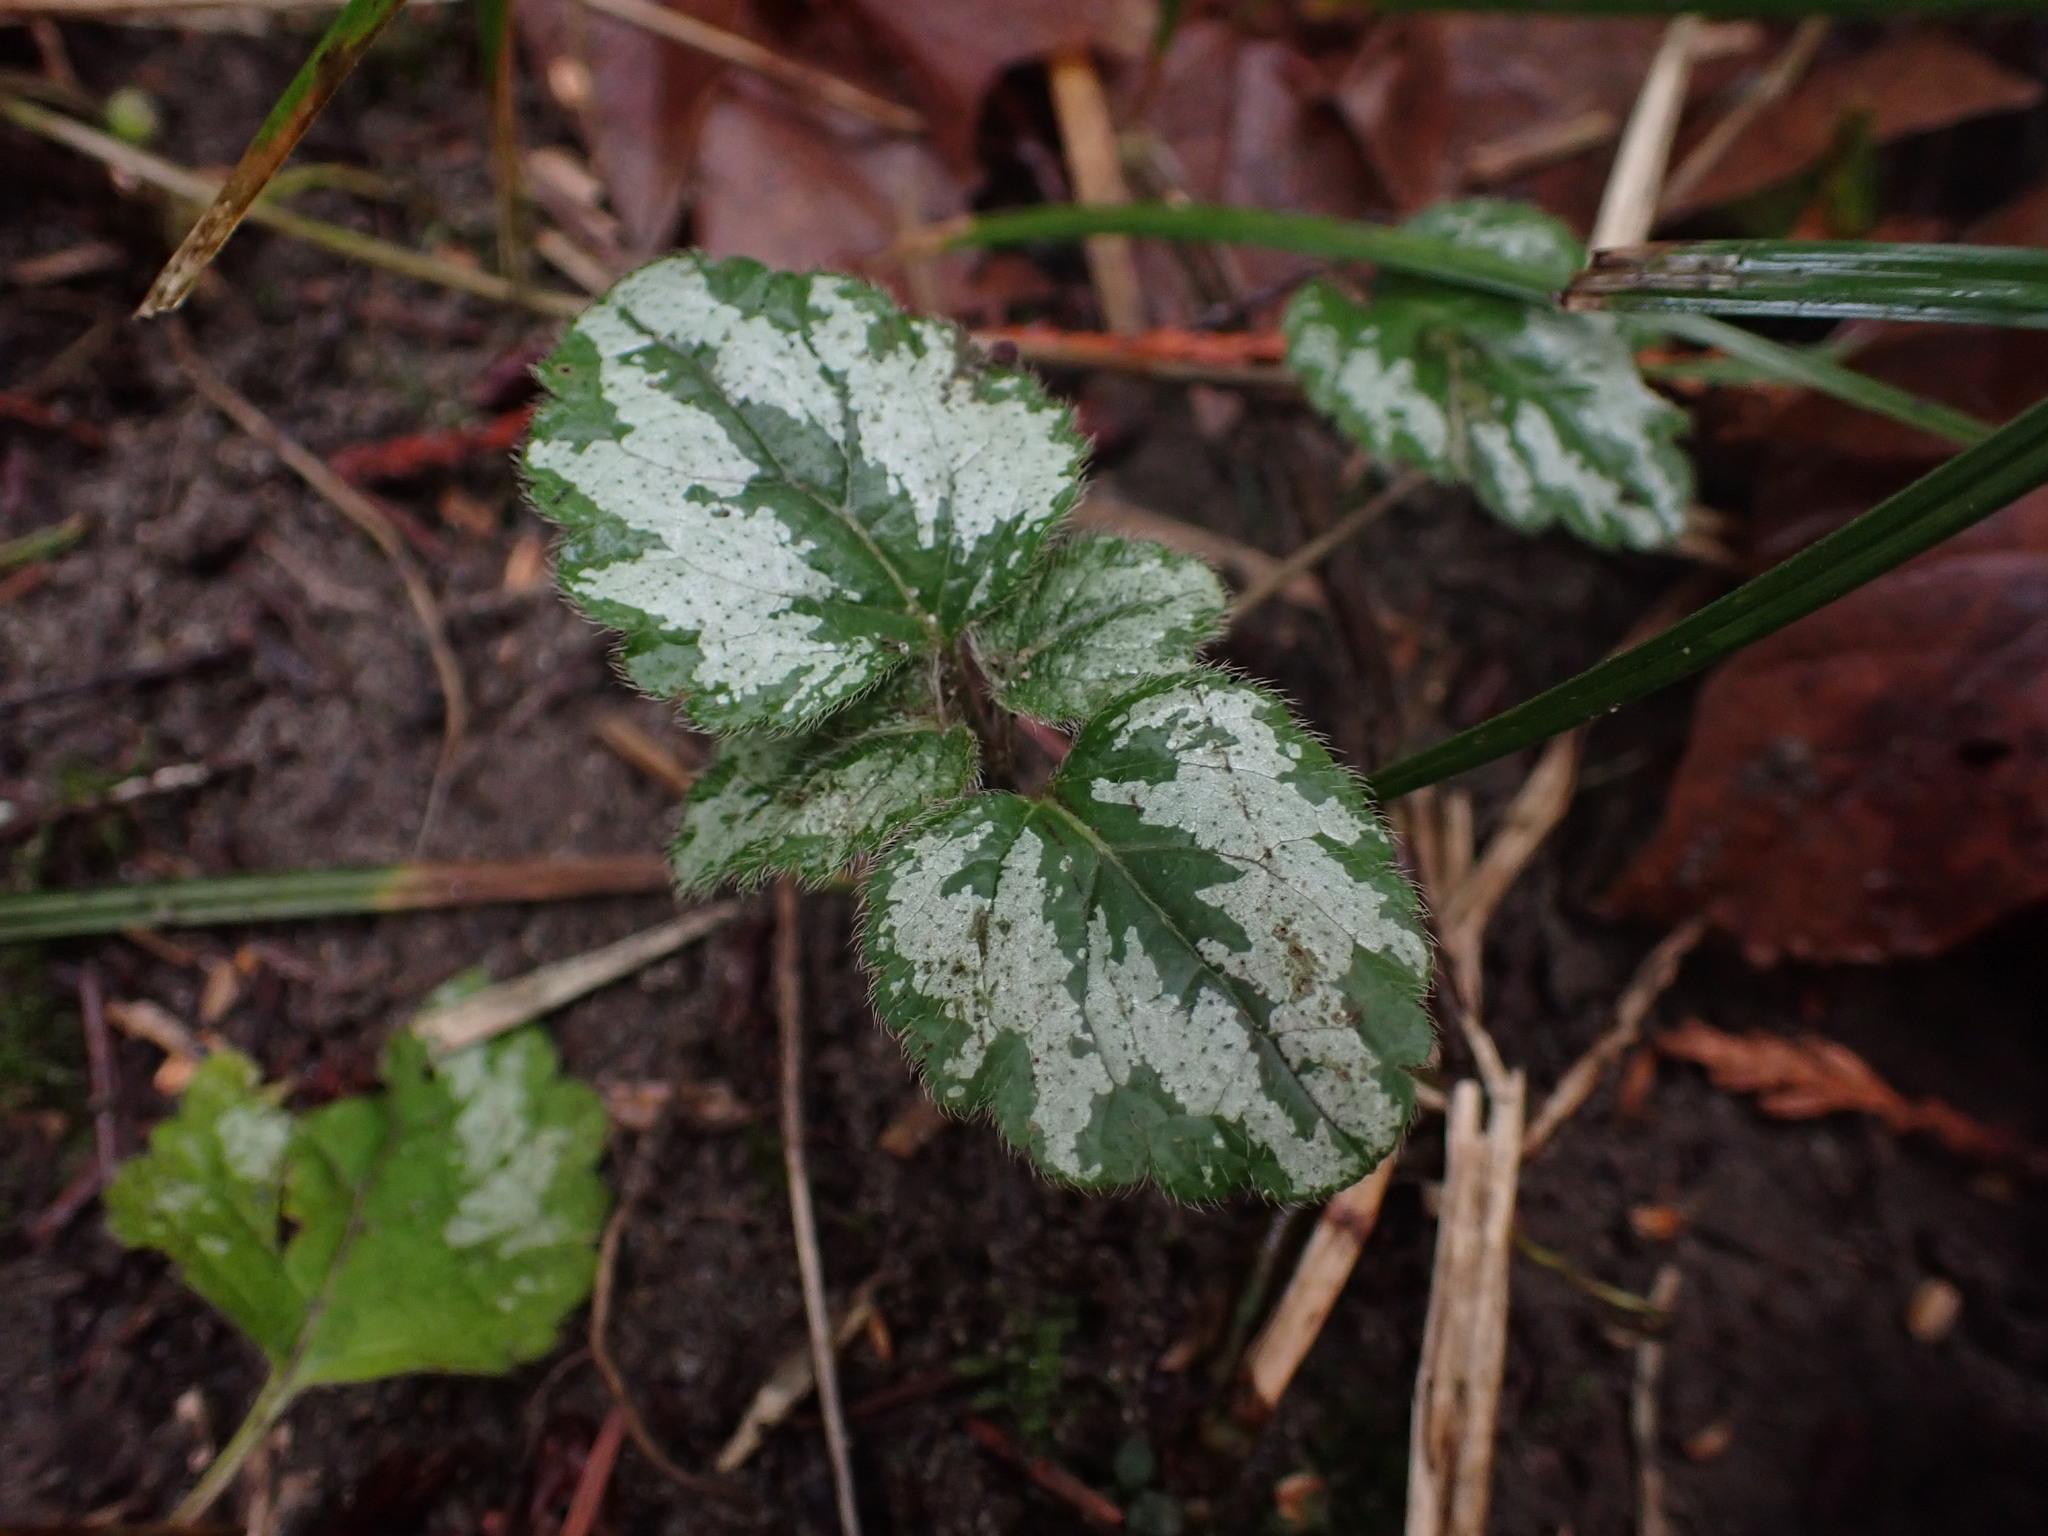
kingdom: Plantae
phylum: Tracheophyta
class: Magnoliopsida
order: Lamiales
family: Lamiaceae
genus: Lamium
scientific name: Lamium galeobdolon
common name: Yellow archangel
